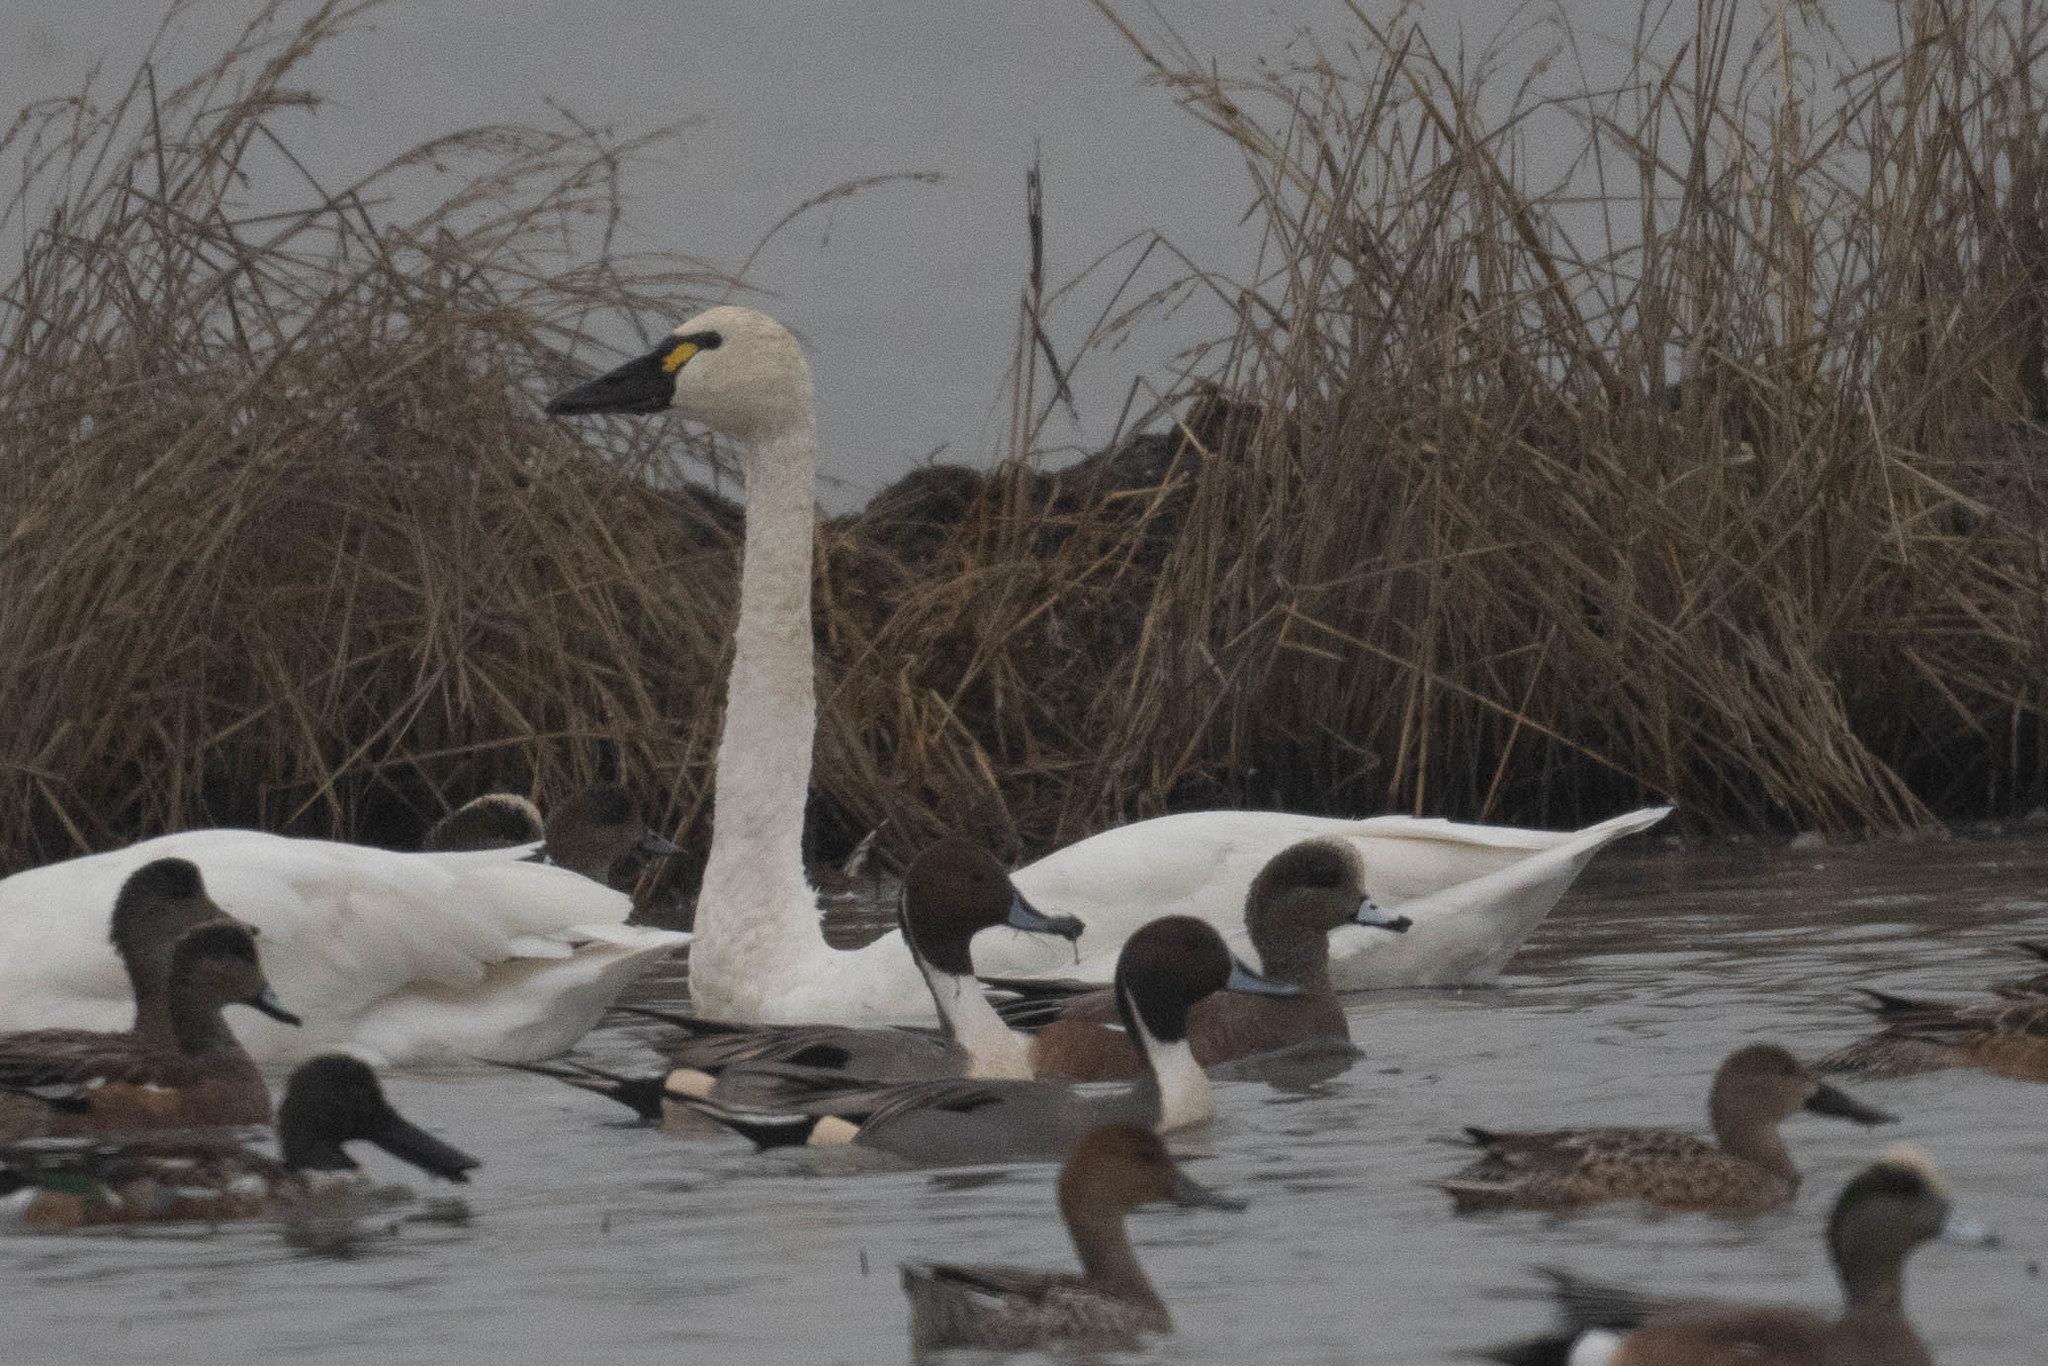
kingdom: Animalia
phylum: Chordata
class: Aves
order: Anseriformes
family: Anatidae
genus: Cygnus
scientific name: Cygnus columbianus
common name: Tundra swan
